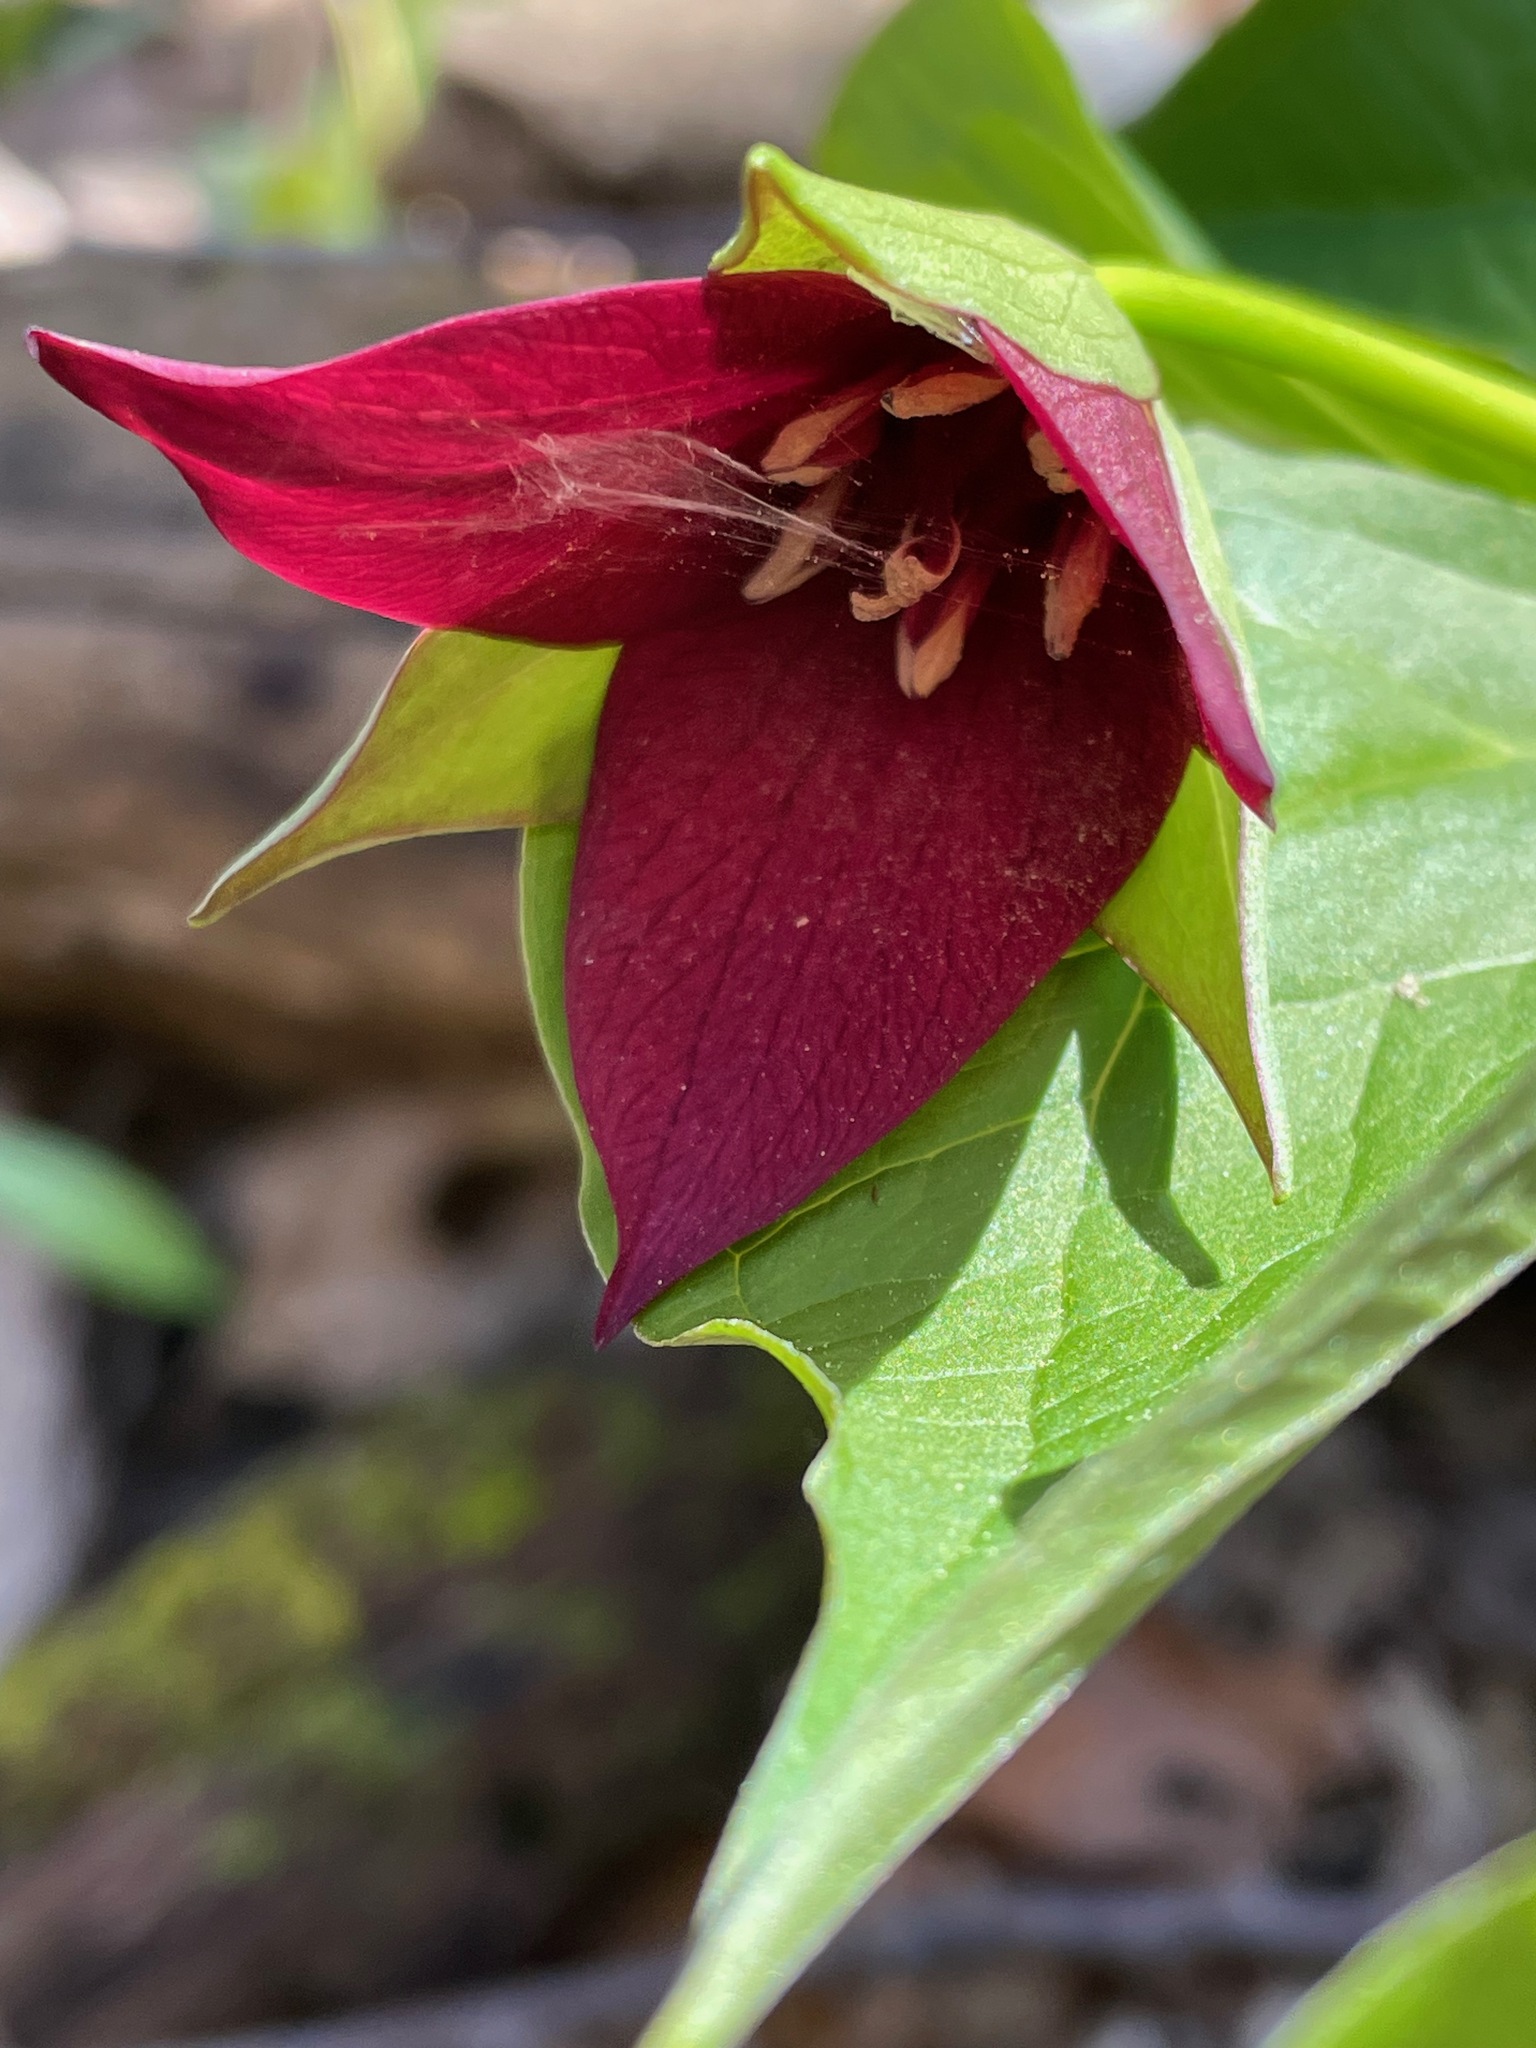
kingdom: Plantae
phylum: Tracheophyta
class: Liliopsida
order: Liliales
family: Melanthiaceae
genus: Trillium
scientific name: Trillium erectum
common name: Purple trillium
